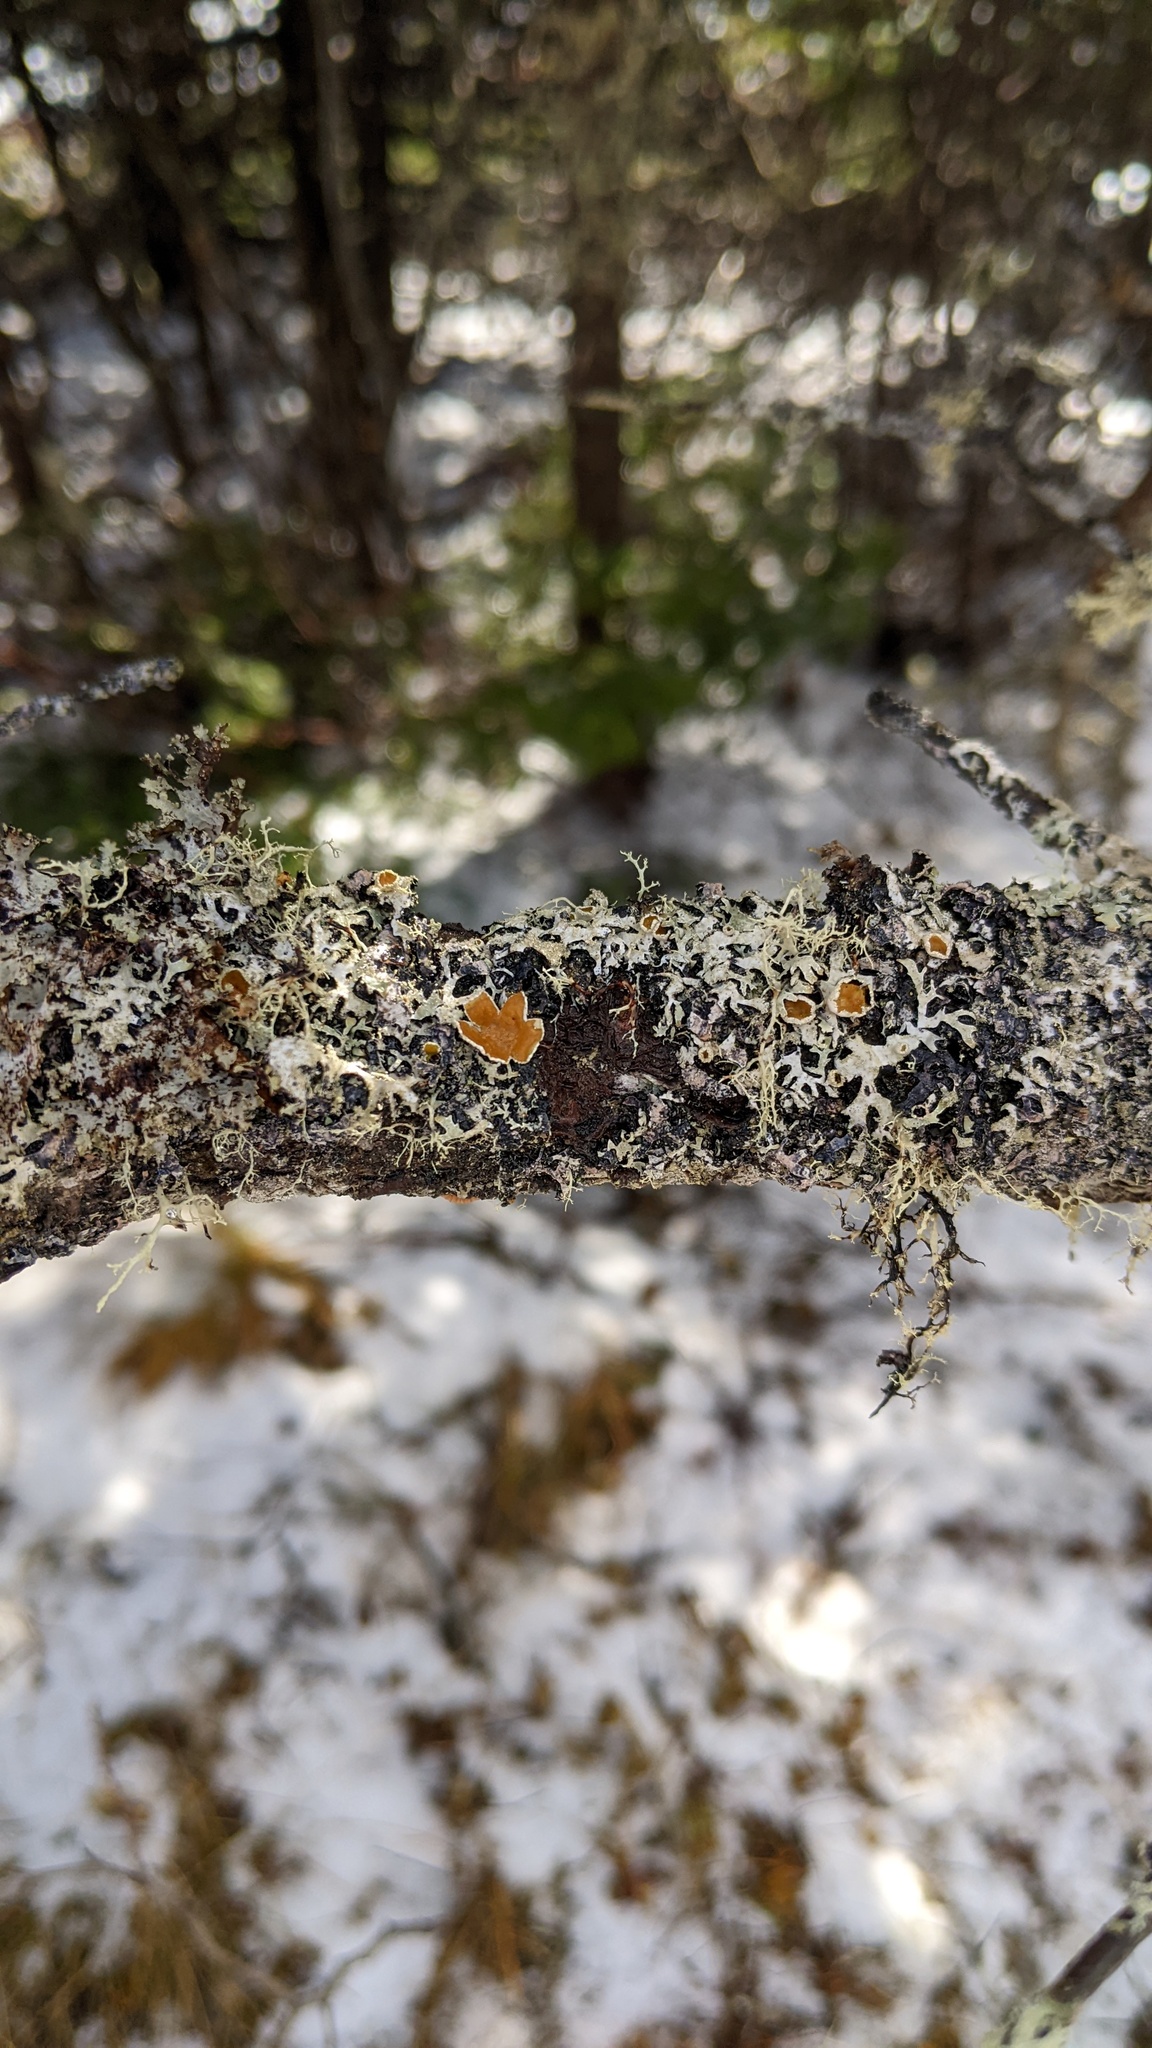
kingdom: Fungi
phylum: Ascomycota
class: Lecanoromycetes
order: Lecanorales
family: Parmeliaceae
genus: Parmelia
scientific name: Parmelia squarrosa
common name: Bottle brush shield lichen
